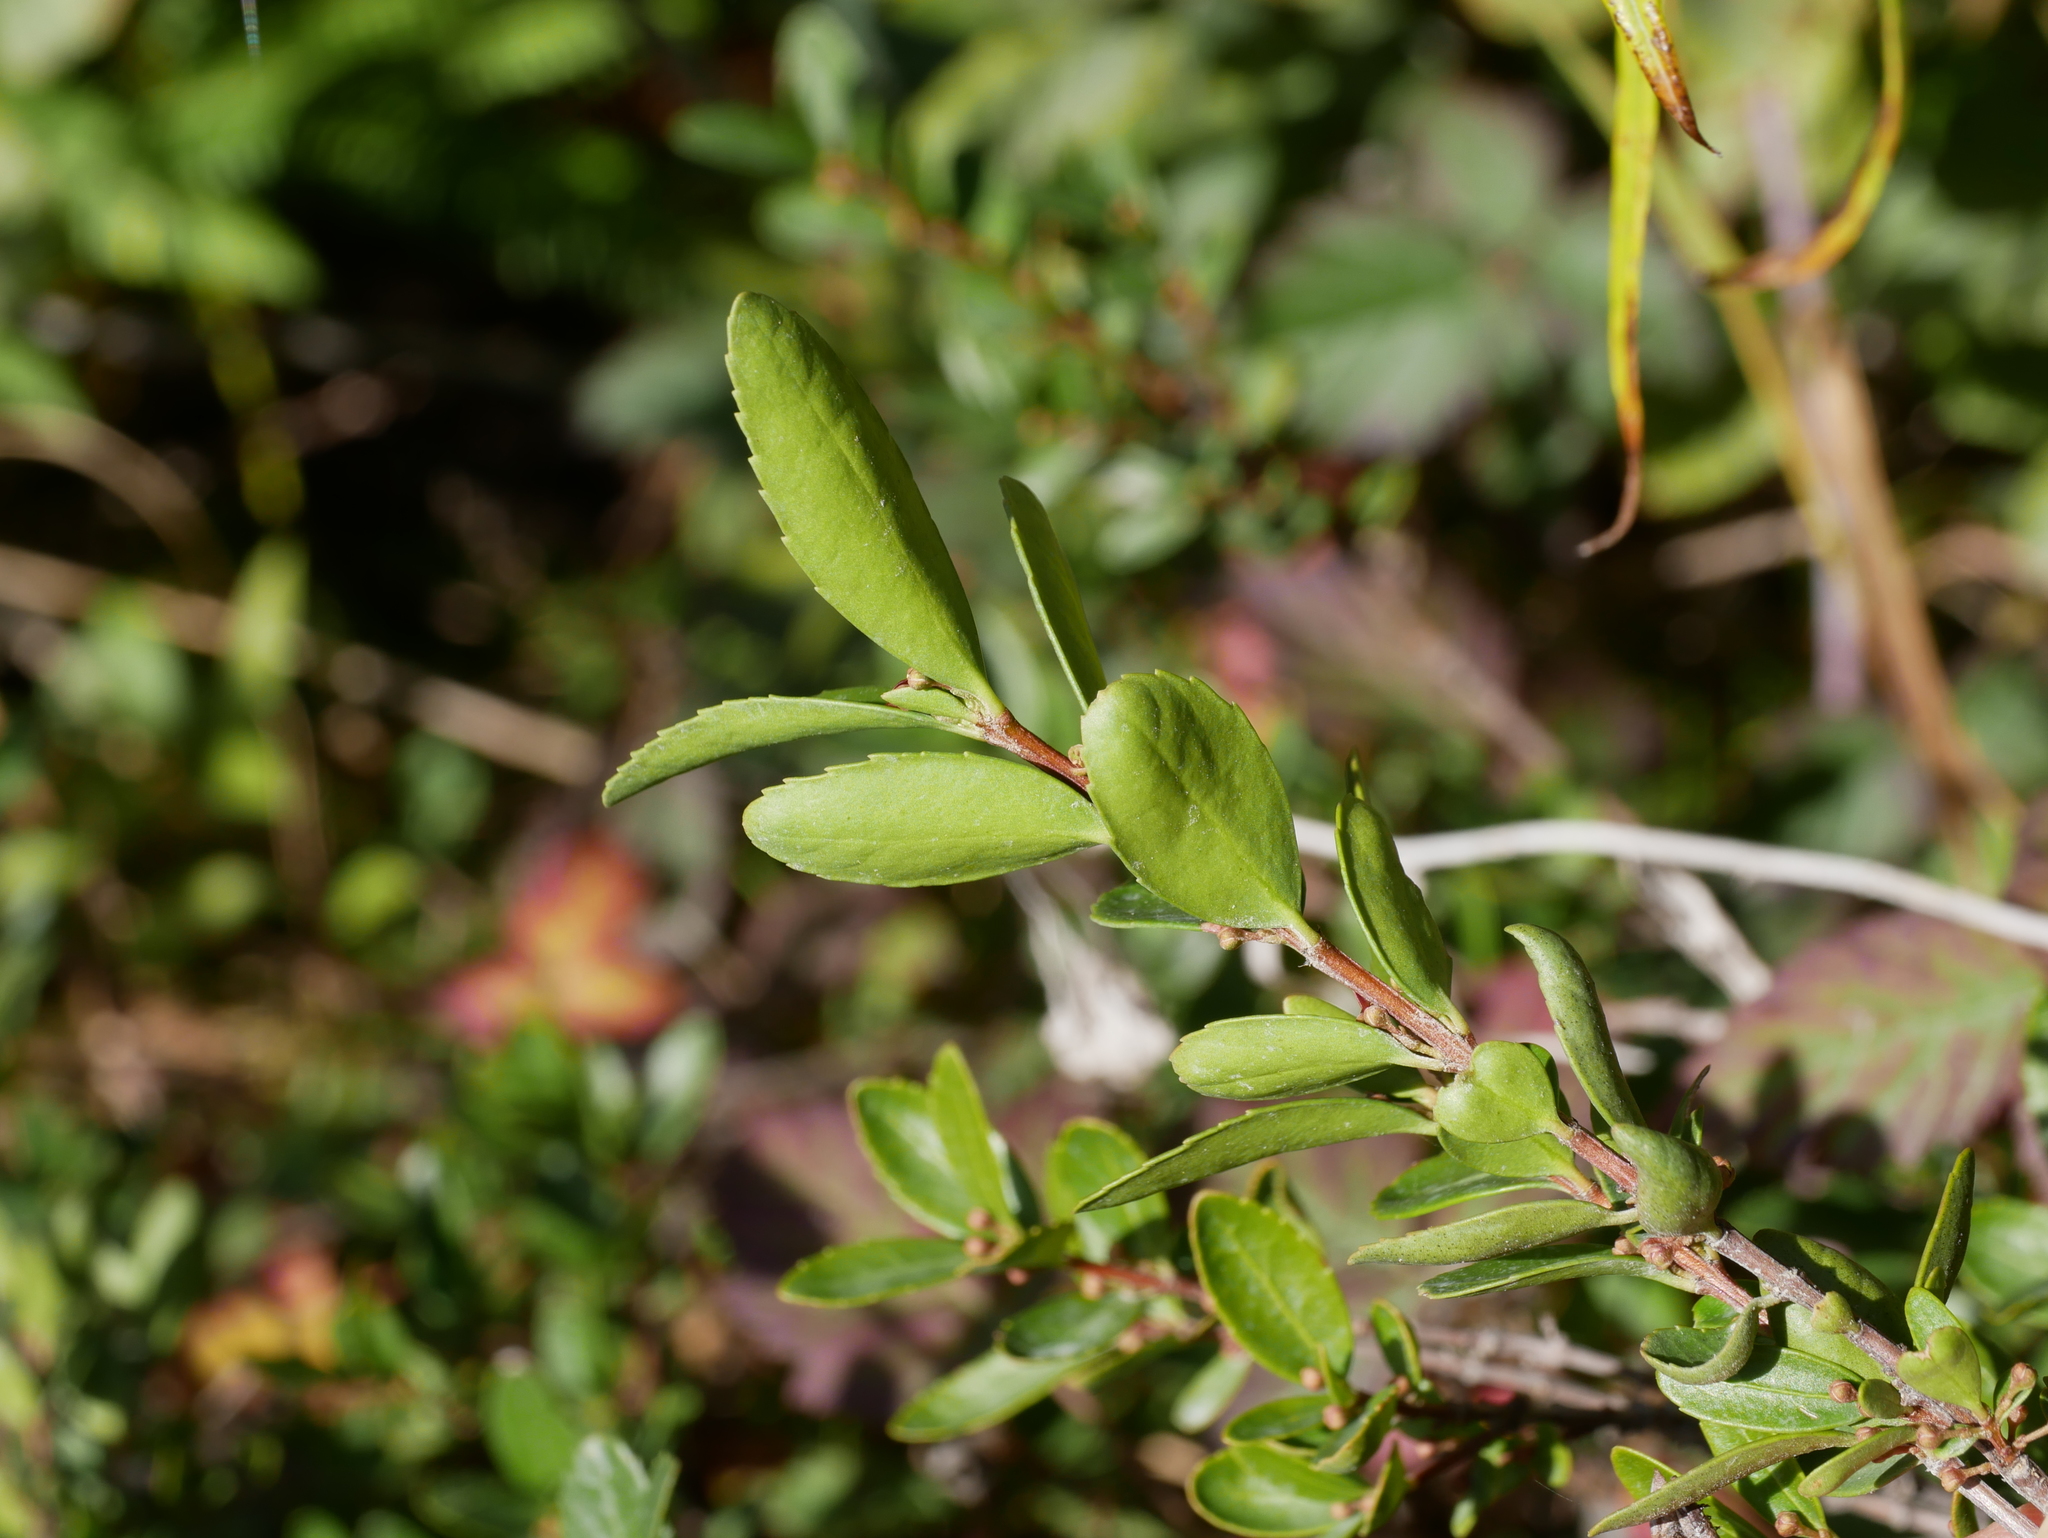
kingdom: Plantae
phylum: Tracheophyta
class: Magnoliopsida
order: Celastrales
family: Celastraceae
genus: Paxistima
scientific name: Paxistima myrsinites
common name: Mountain-lover
